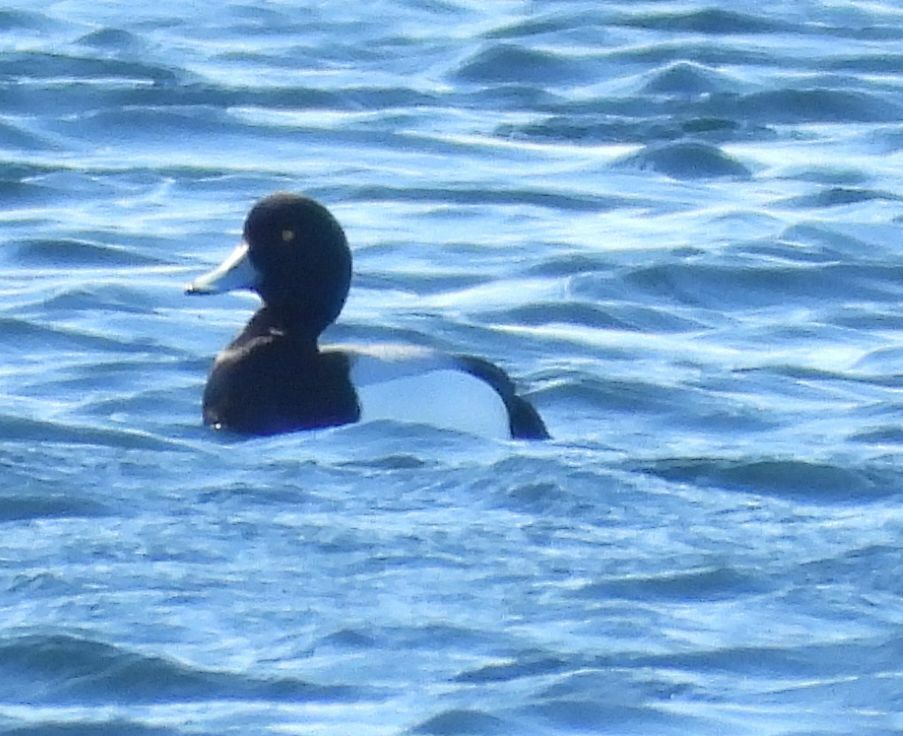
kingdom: Animalia
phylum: Chordata
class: Aves
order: Anseriformes
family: Anatidae
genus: Aythya
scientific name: Aythya marila
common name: Greater scaup
